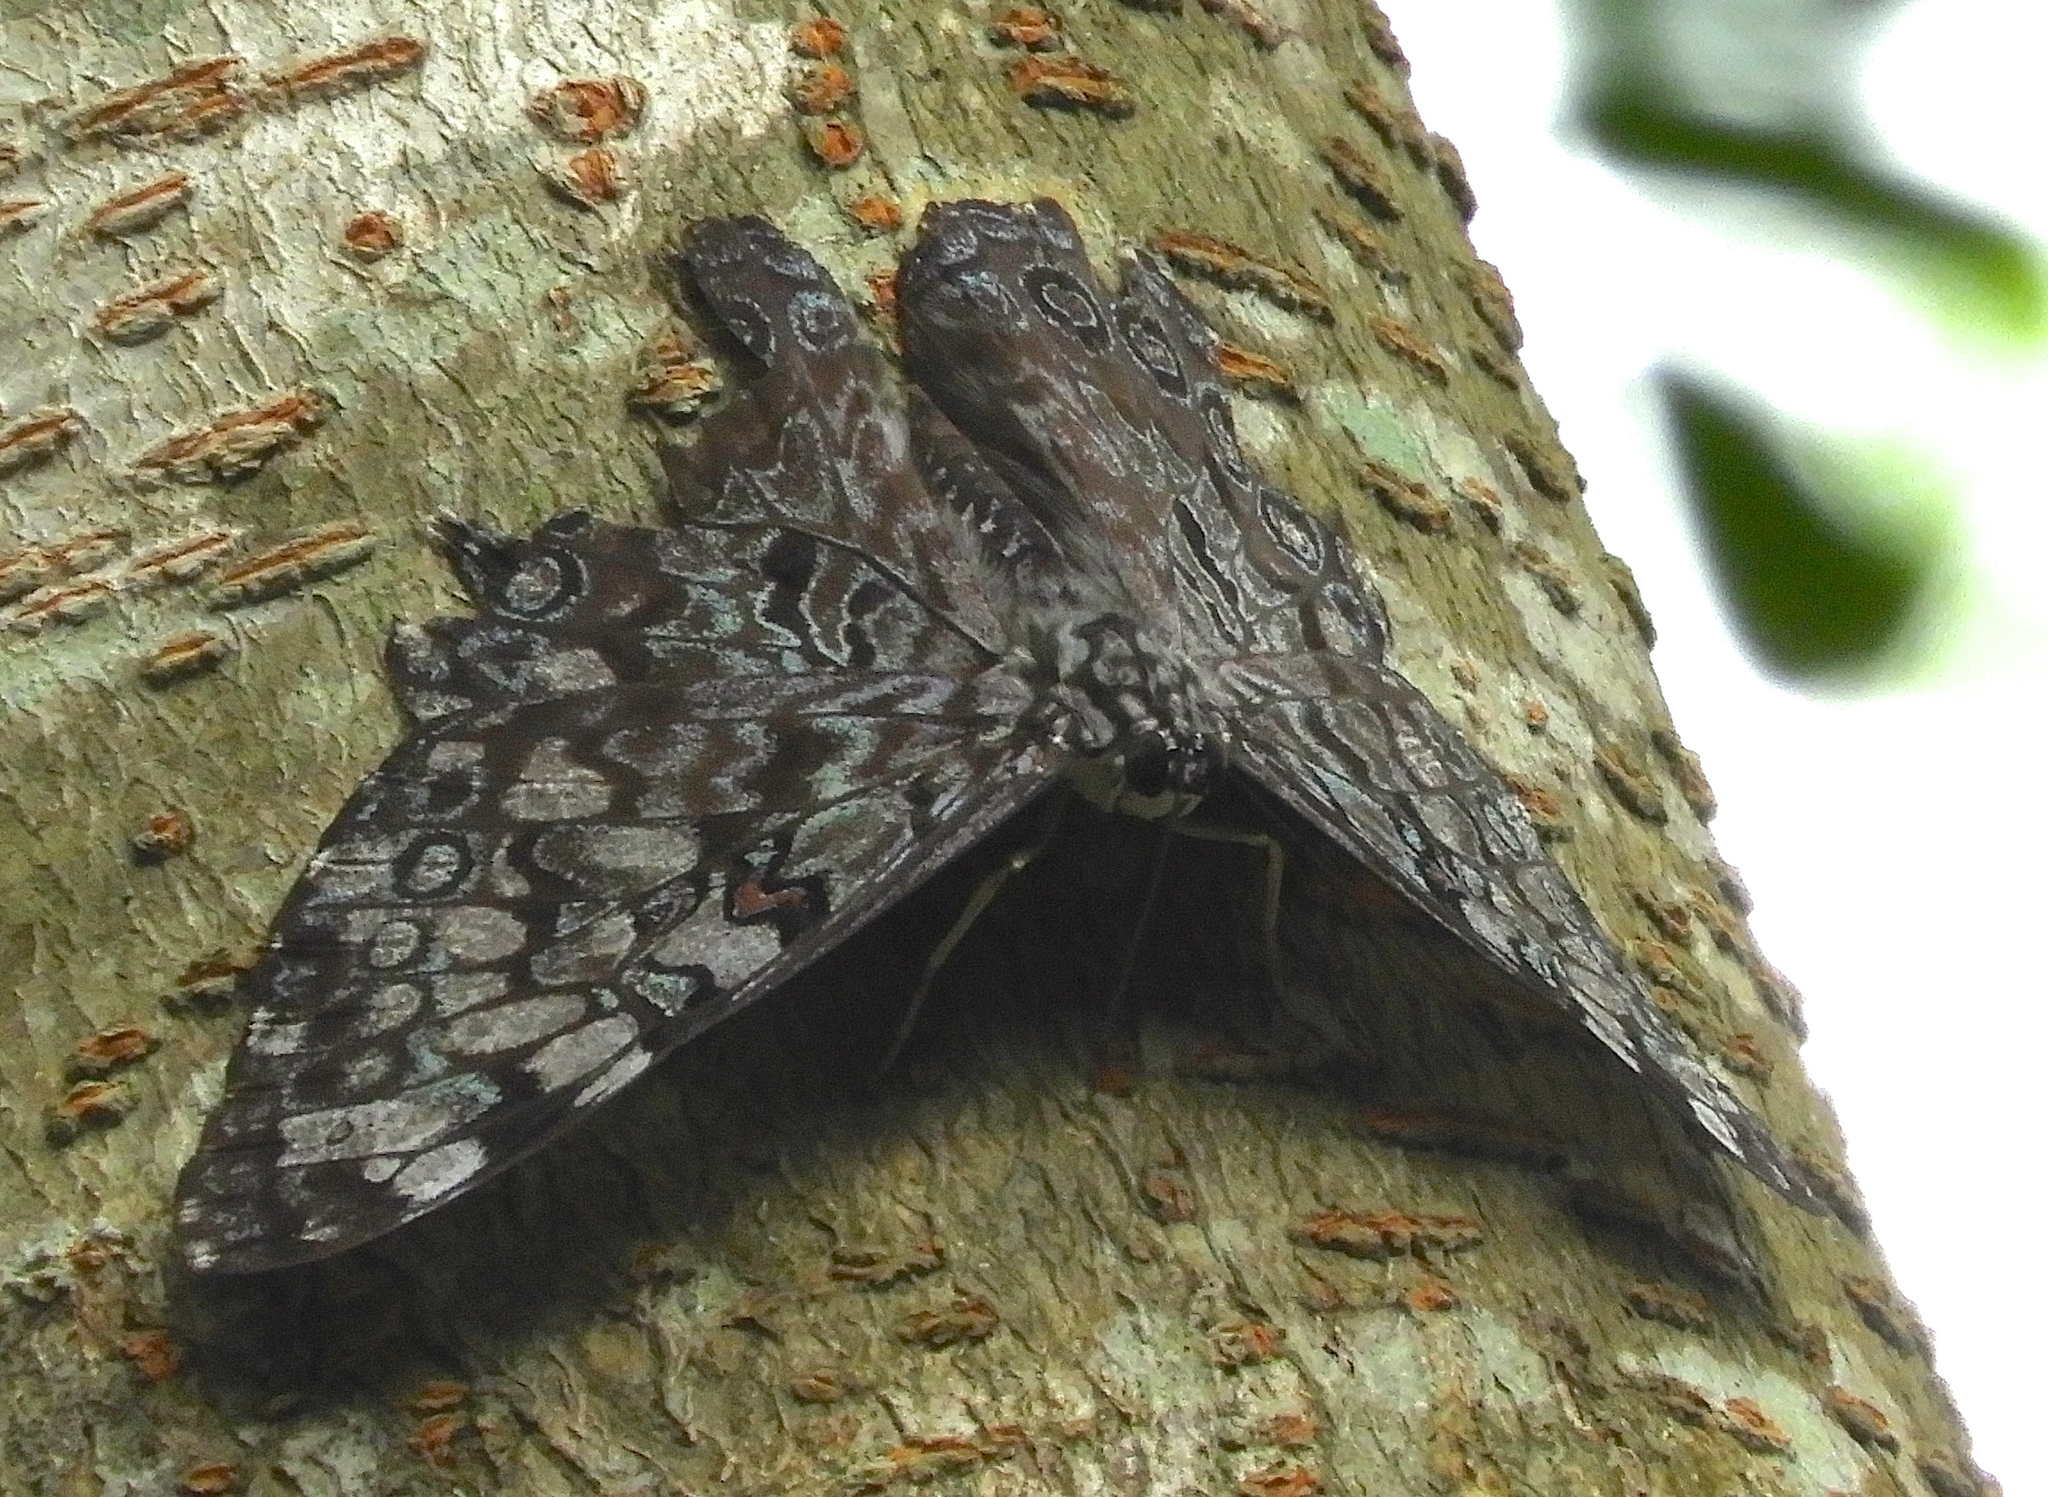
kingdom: Animalia
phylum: Arthropoda
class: Insecta
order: Lepidoptera
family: Nymphalidae
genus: Hamadryas
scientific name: Hamadryas guatemalena
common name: Guatemalan cracker
